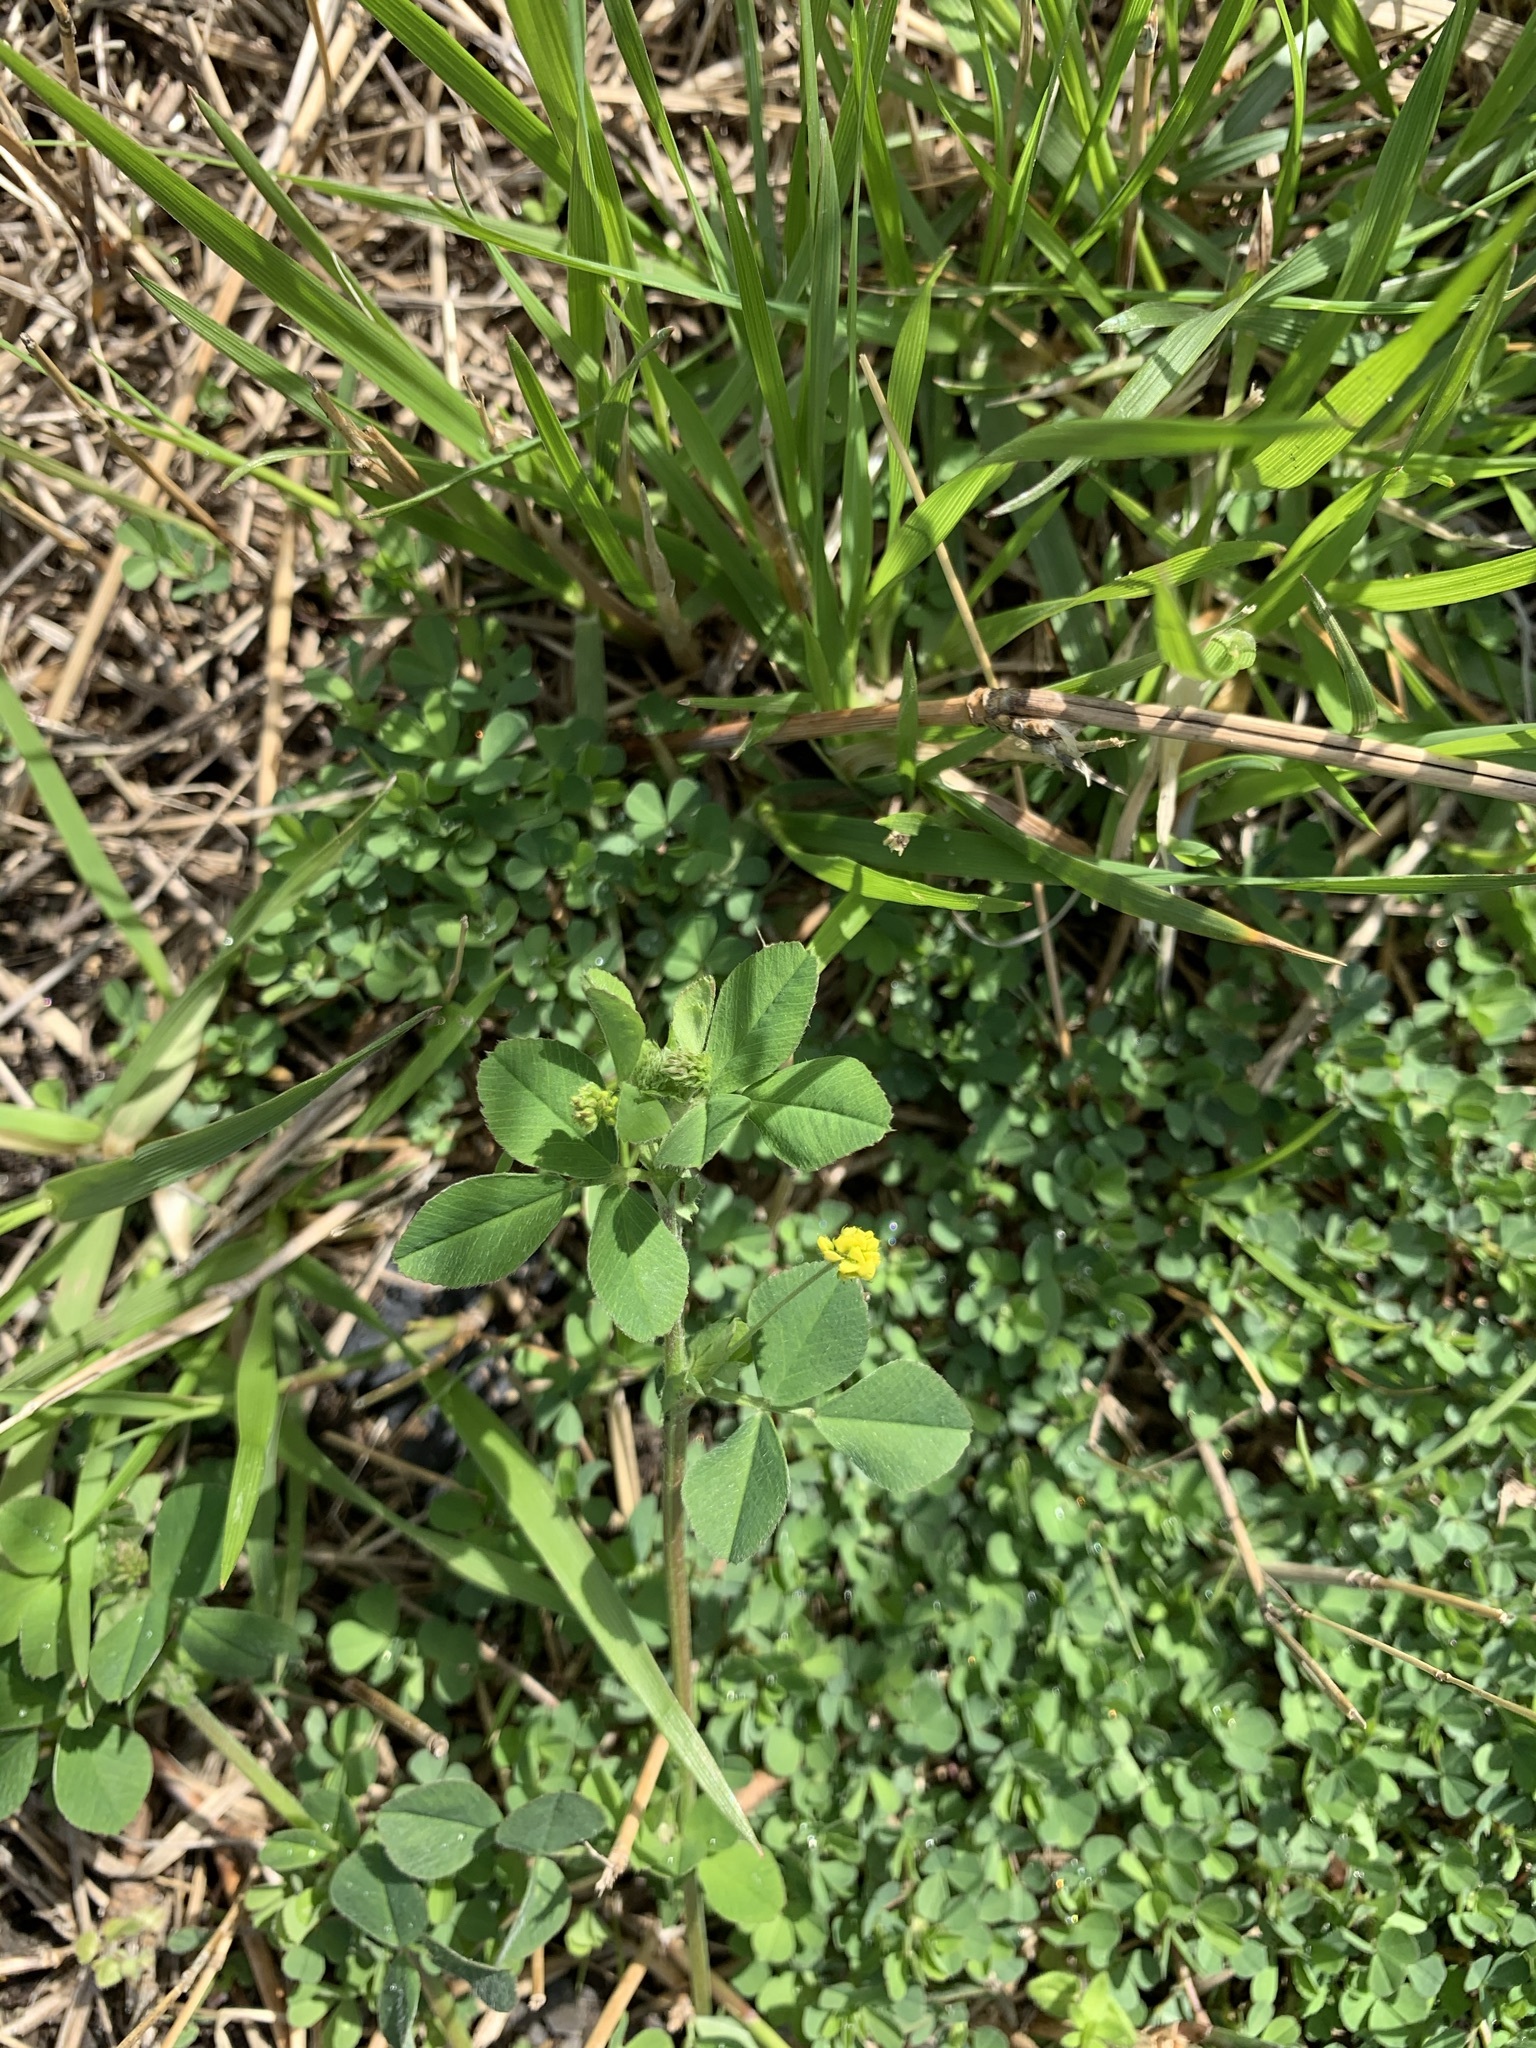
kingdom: Plantae
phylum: Tracheophyta
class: Magnoliopsida
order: Fabales
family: Fabaceae
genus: Medicago
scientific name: Medicago lupulina
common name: Black medick
